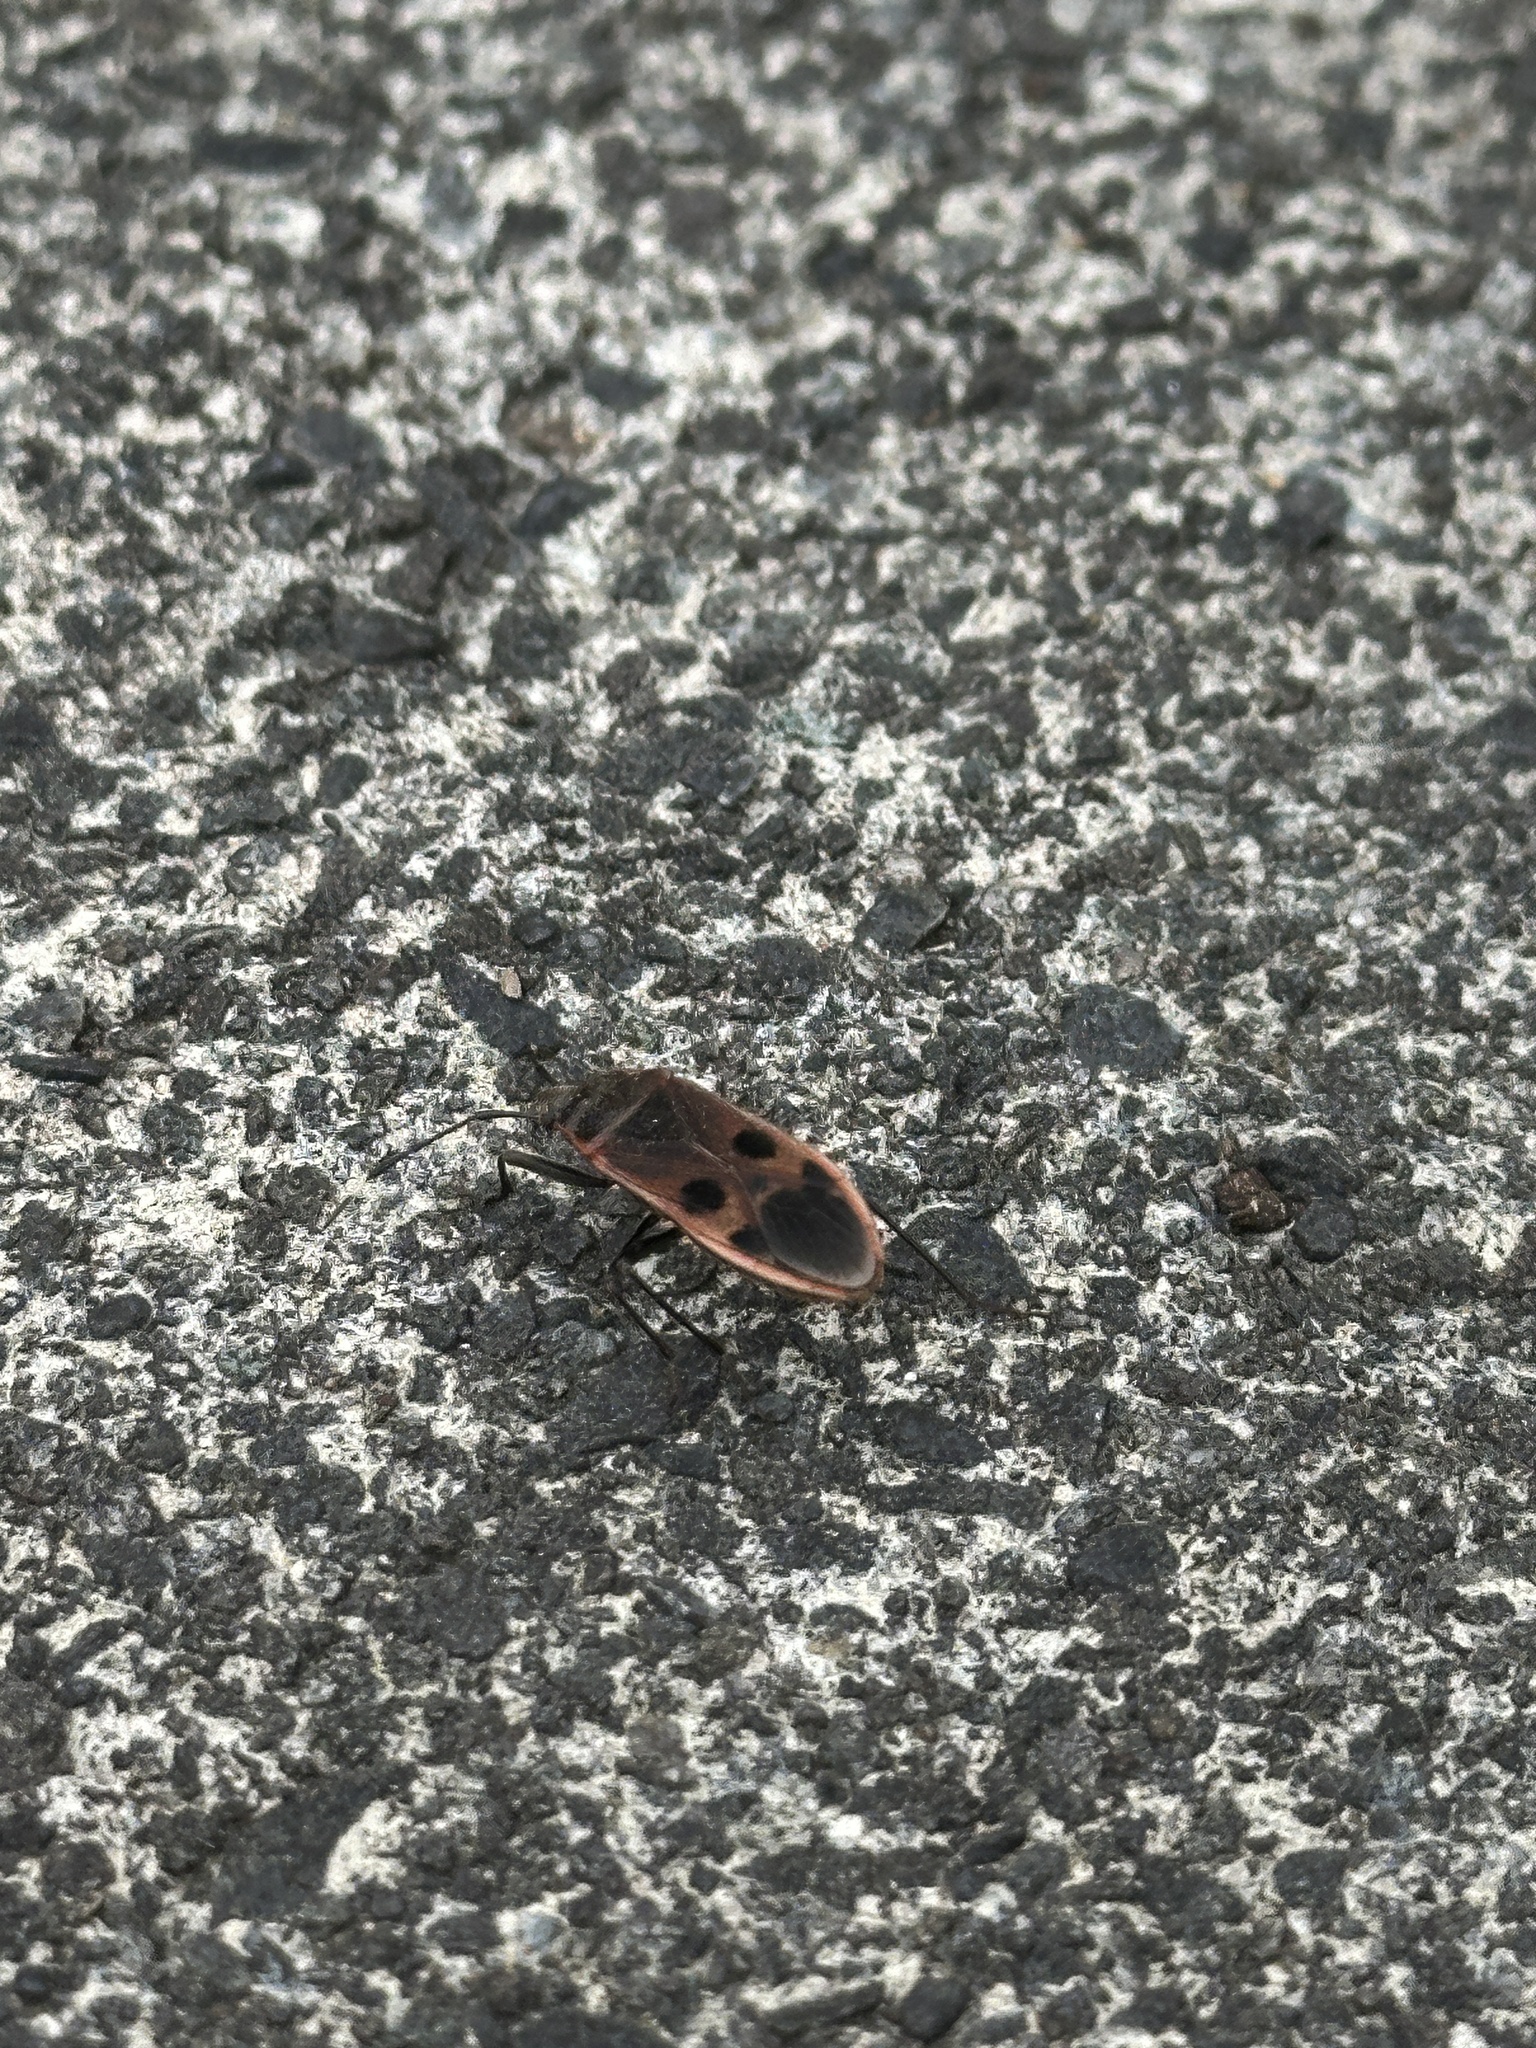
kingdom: Animalia
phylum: Arthropoda
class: Insecta
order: Hemiptera
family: Largidae
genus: Physopelta
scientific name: Physopelta parviceps
